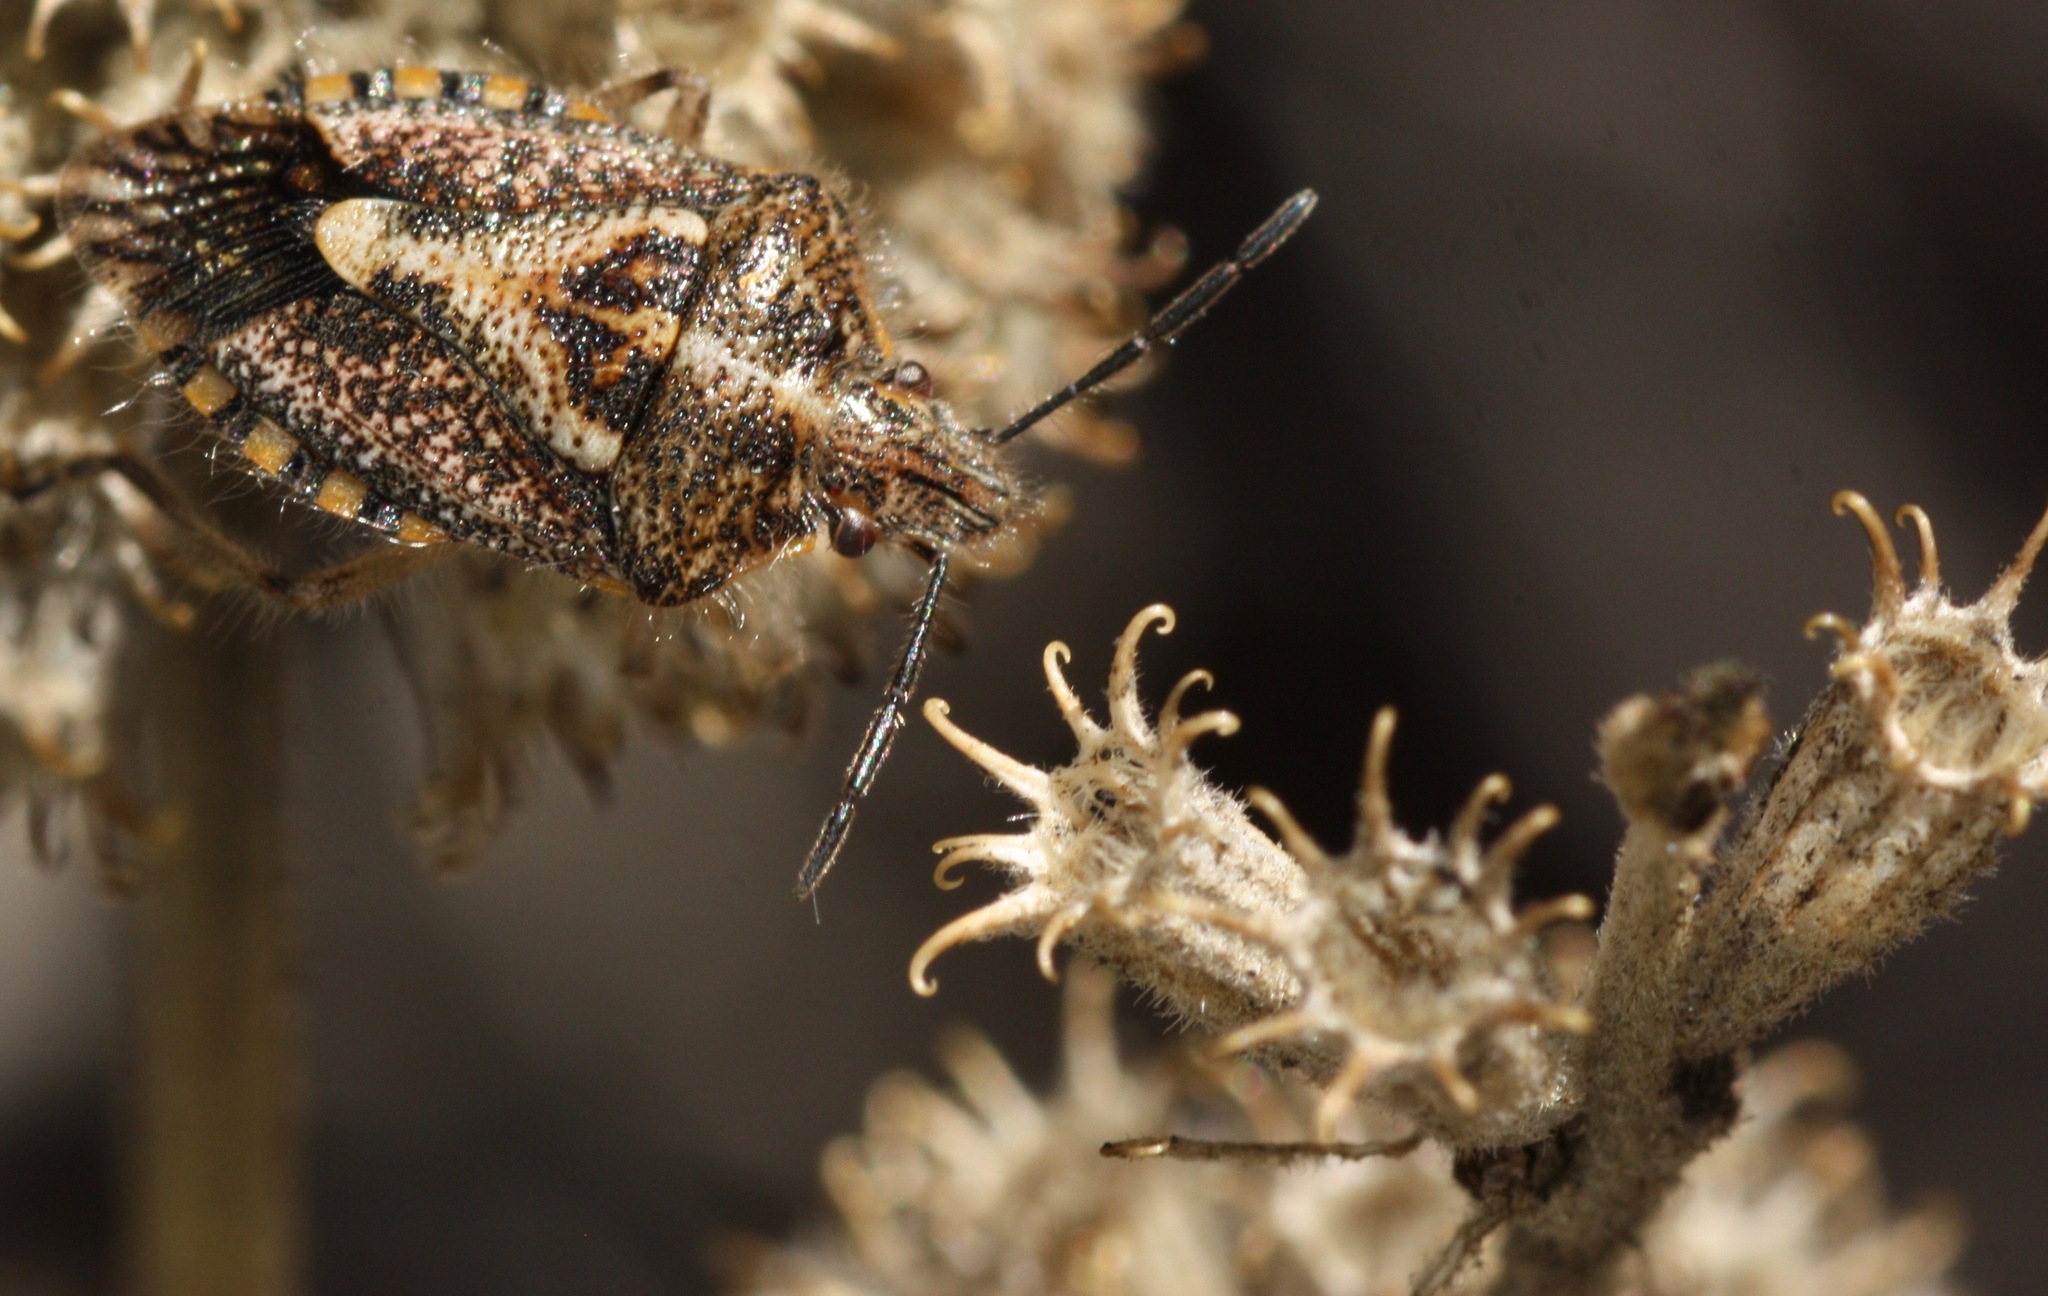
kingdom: Animalia
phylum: Arthropoda
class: Insecta
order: Hemiptera
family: Pentatomidae
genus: Agonoscelis
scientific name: Agonoscelis puberula
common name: African cluster bug
